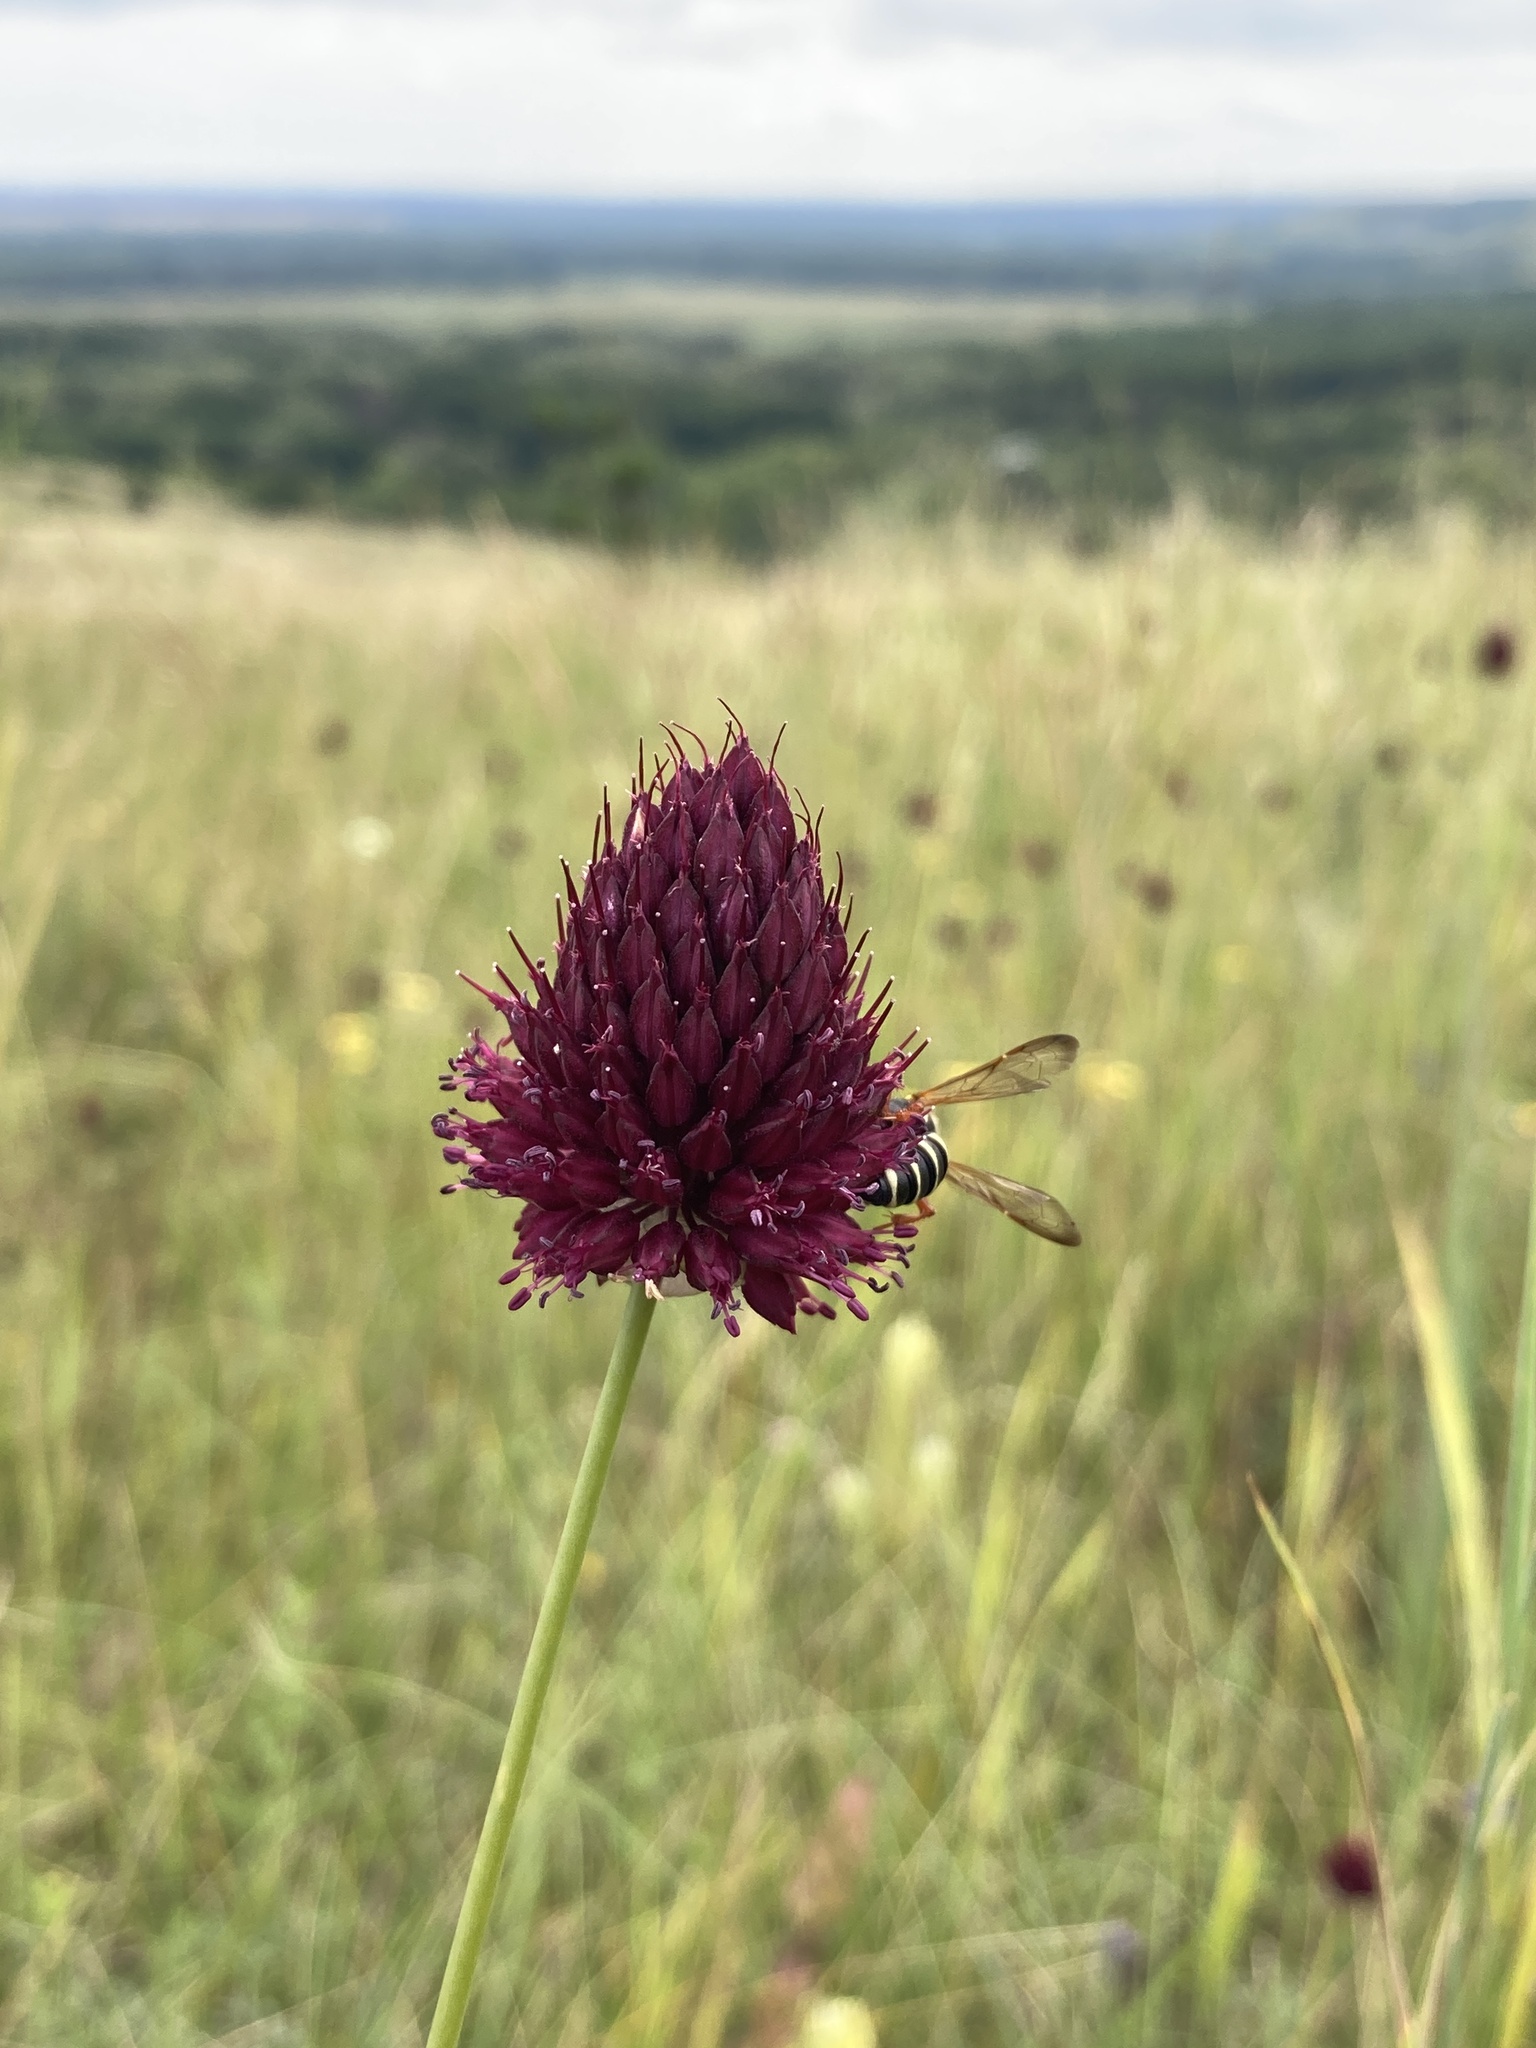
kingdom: Plantae
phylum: Tracheophyta
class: Liliopsida
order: Asparagales
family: Amaryllidaceae
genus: Allium
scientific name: Allium sphaerocephalon
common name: Round-headed leek
